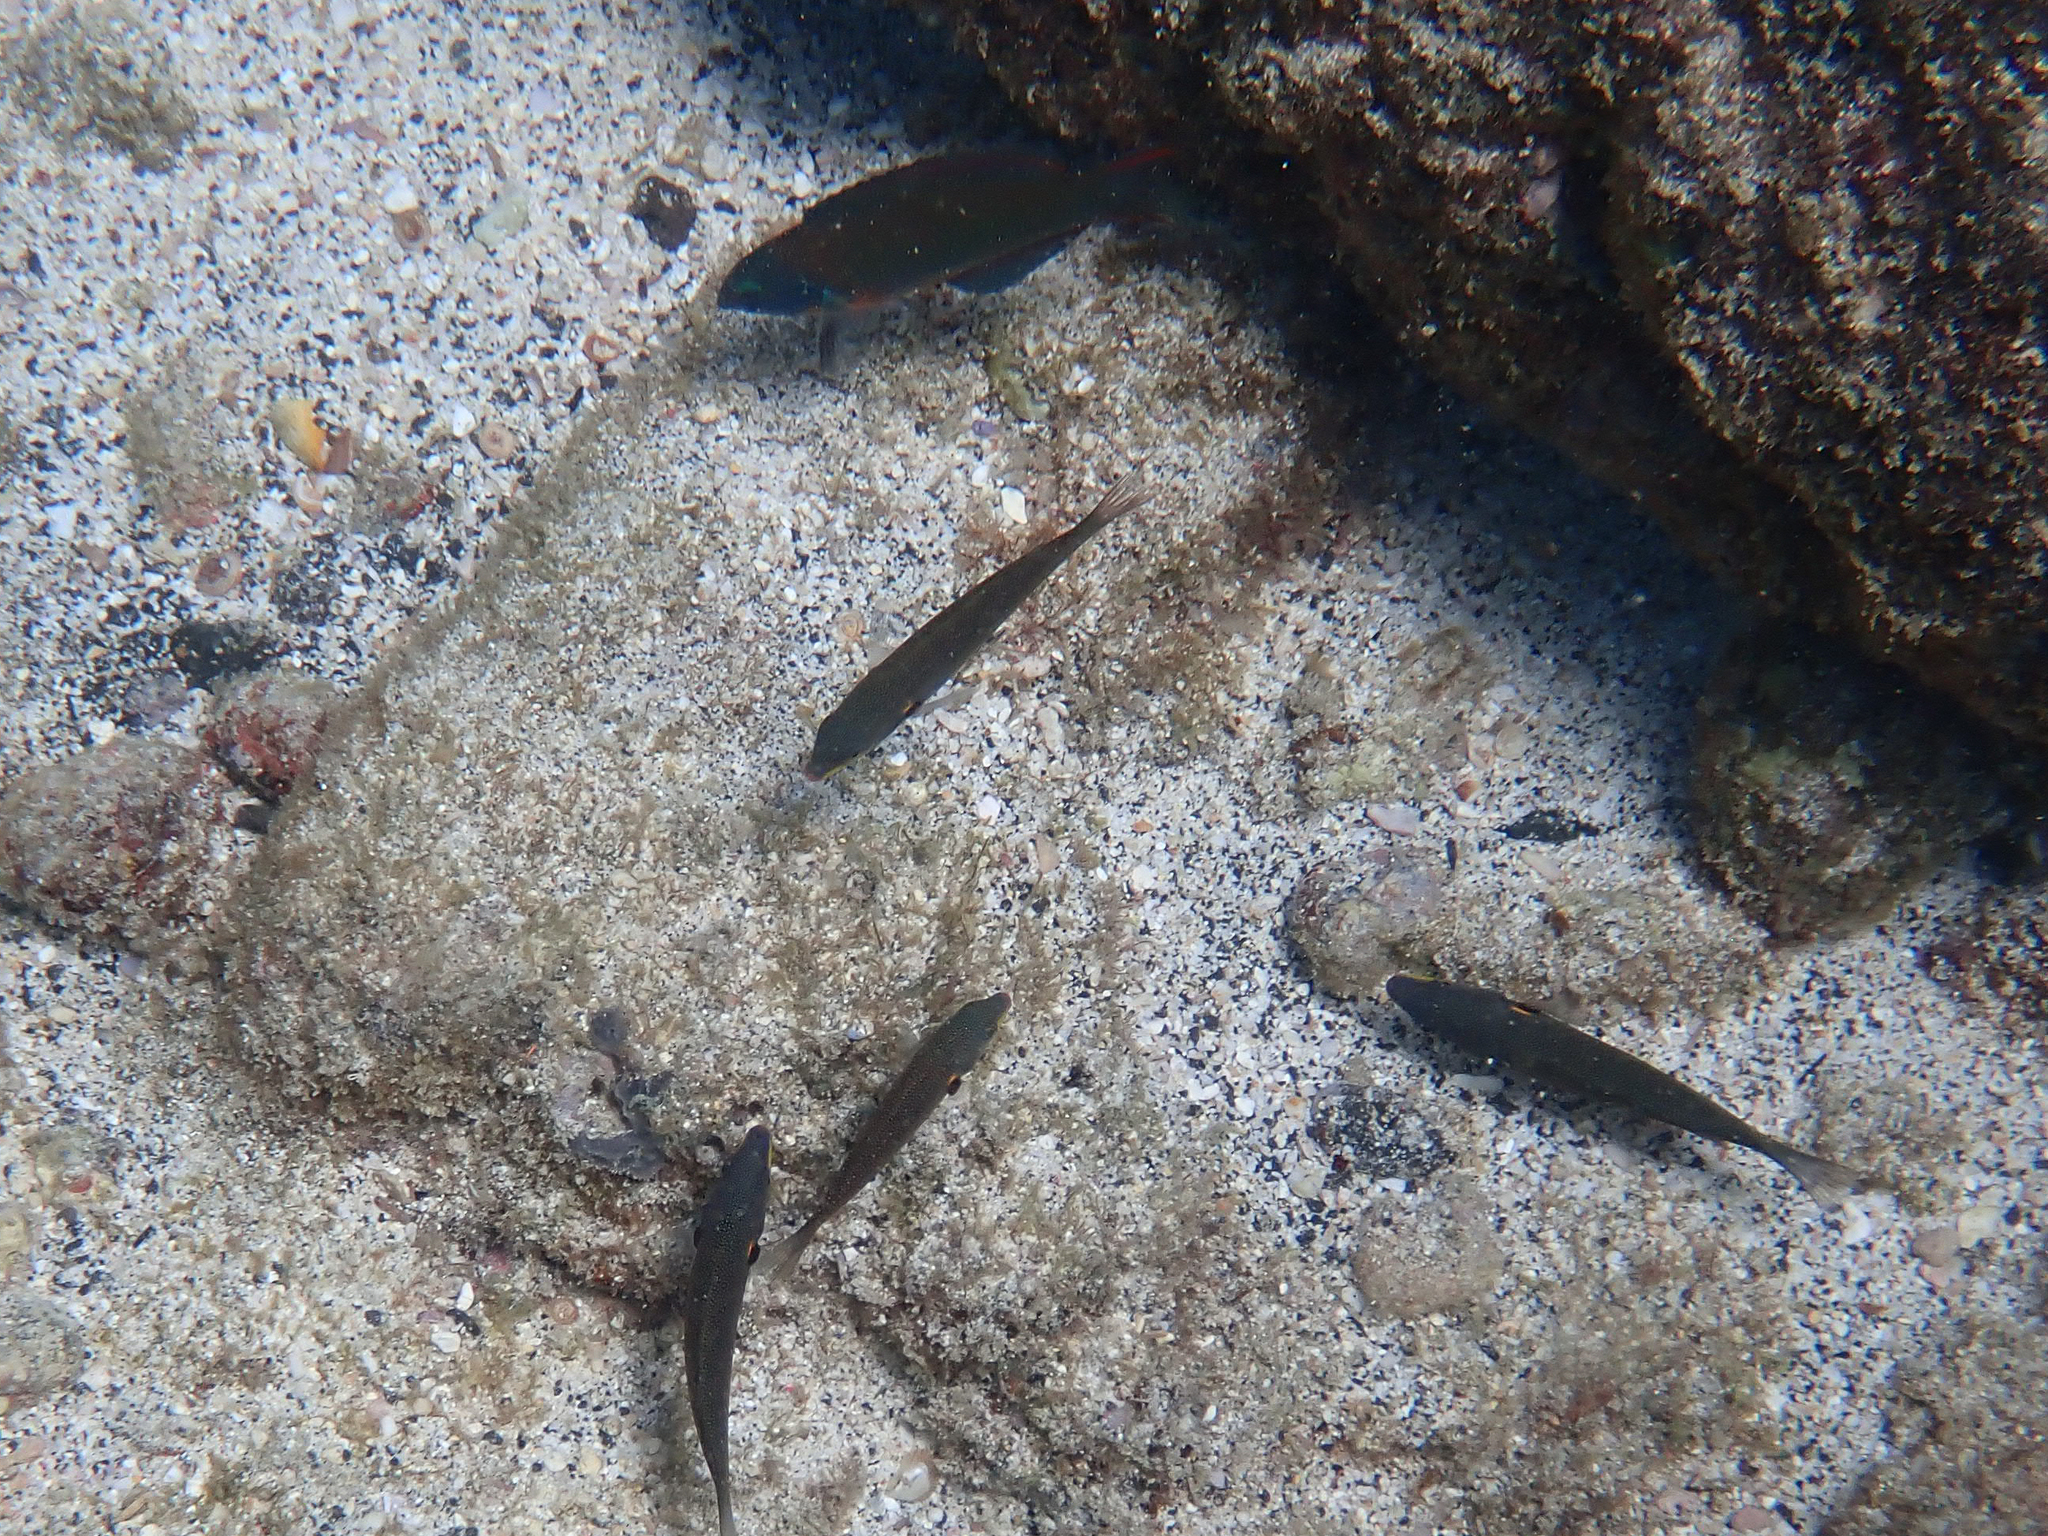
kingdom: Animalia
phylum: Chordata
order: Perciformes
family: Labridae
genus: Stethojulis
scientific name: Stethojulis balteata
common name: Belted wrasse
